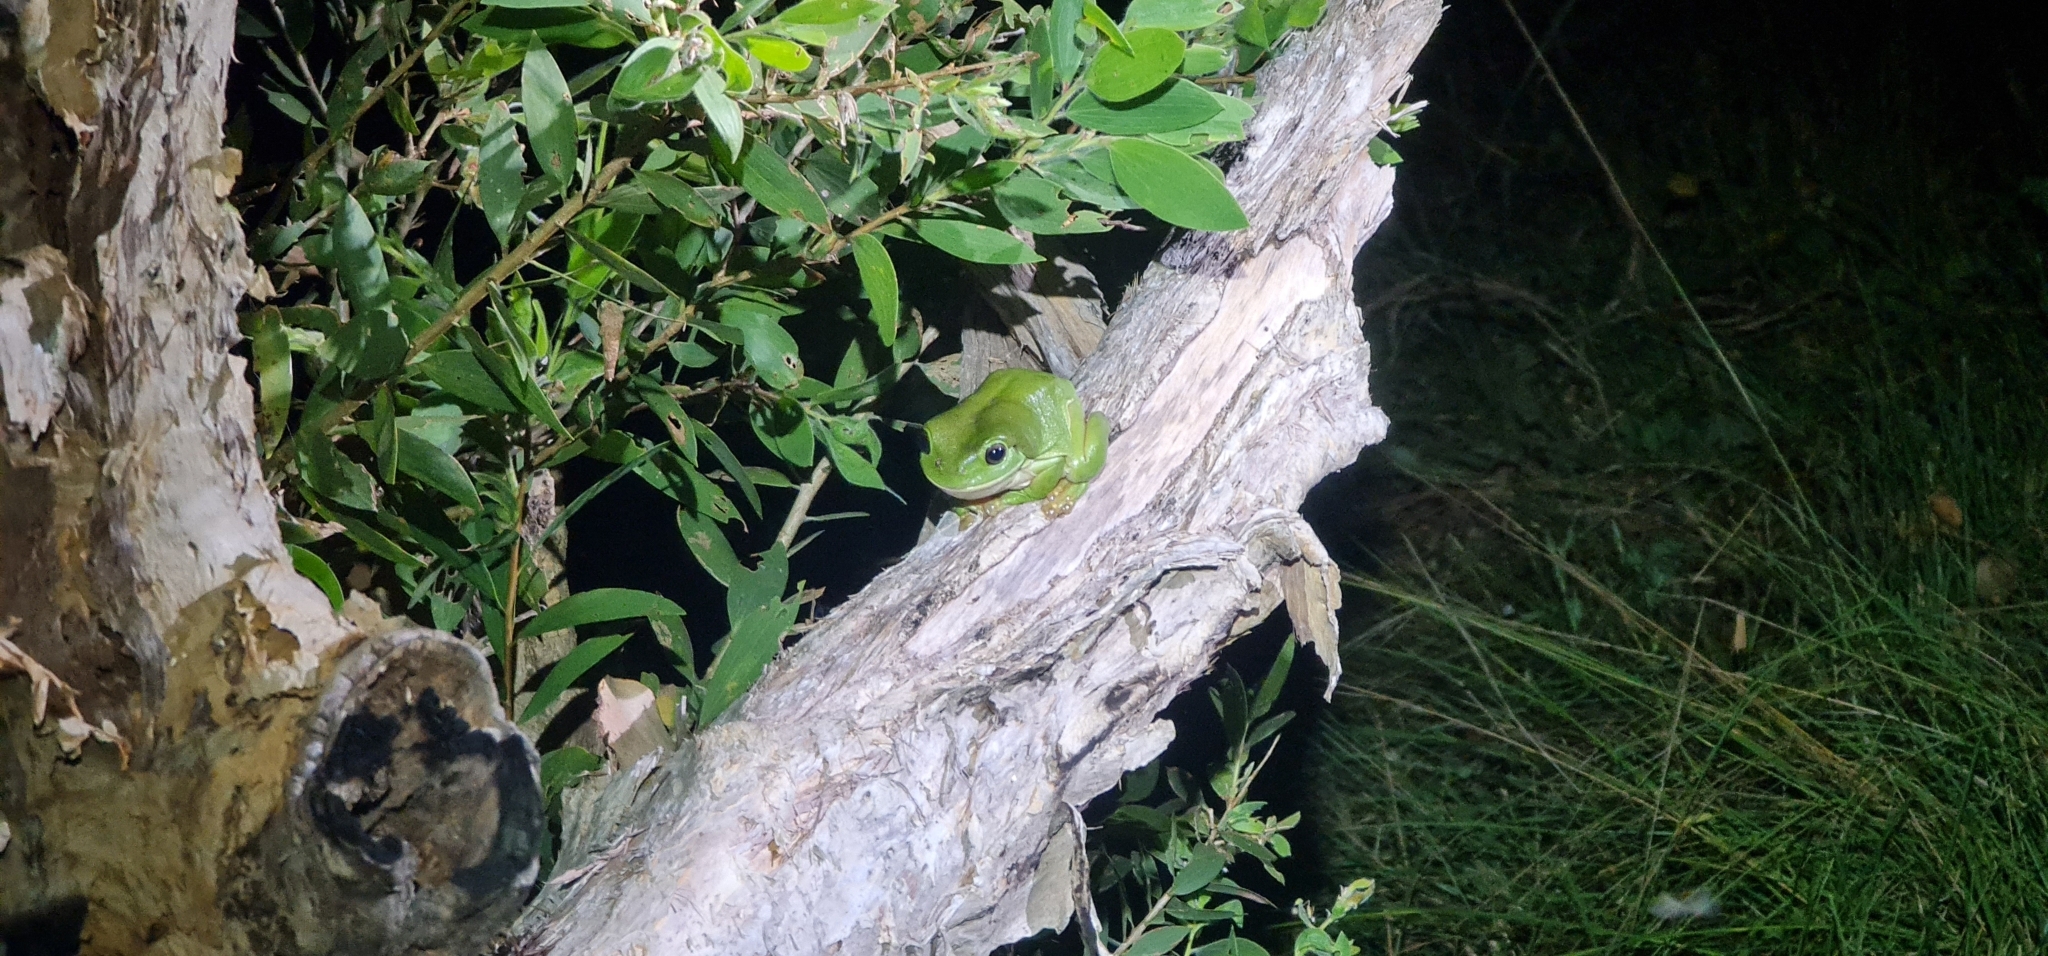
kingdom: Animalia
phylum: Chordata
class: Amphibia
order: Anura
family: Pelodryadidae
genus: Ranoidea
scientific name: Ranoidea caerulea
